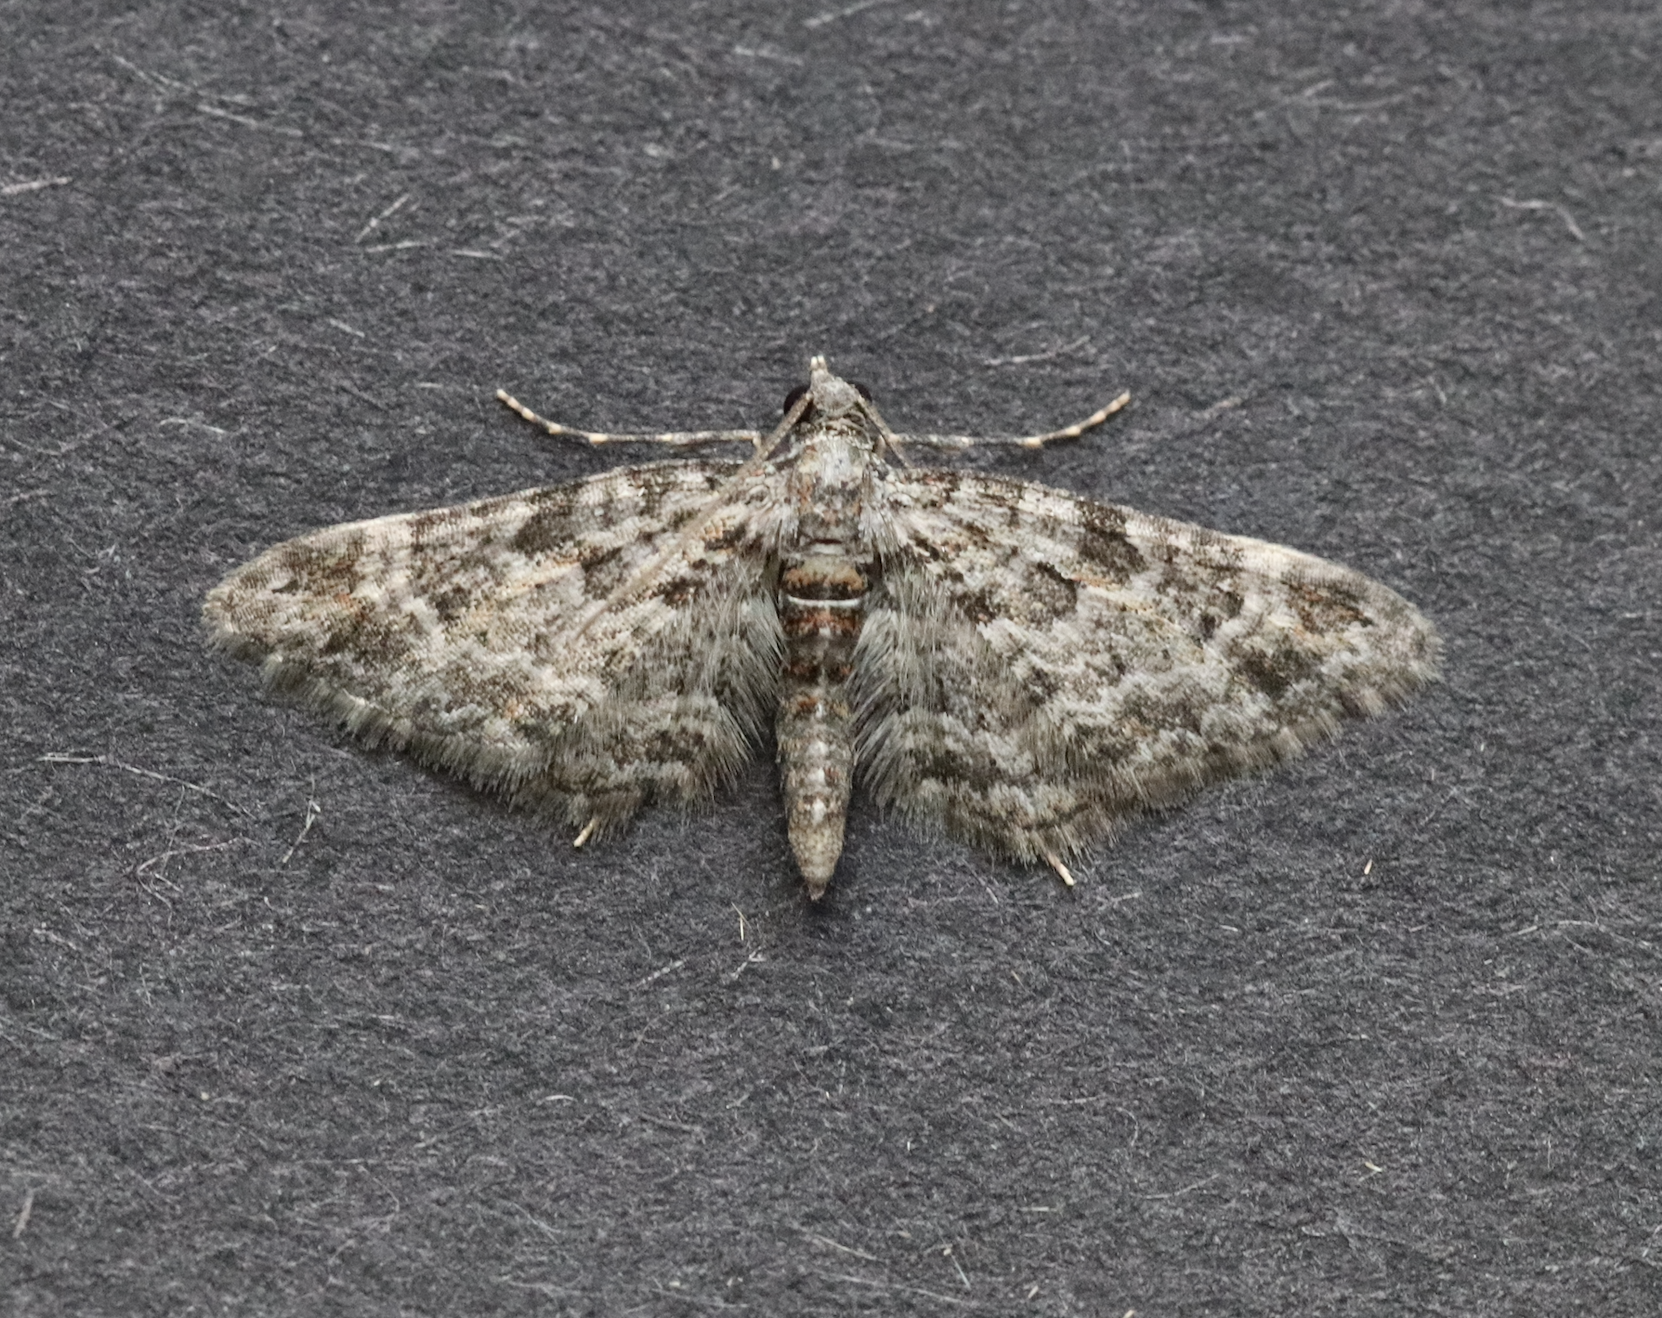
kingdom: Animalia
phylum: Arthropoda
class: Insecta
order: Lepidoptera
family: Geometridae
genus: Gymnoscelis
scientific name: Gymnoscelis rufifasciata
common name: Double-striped pug
